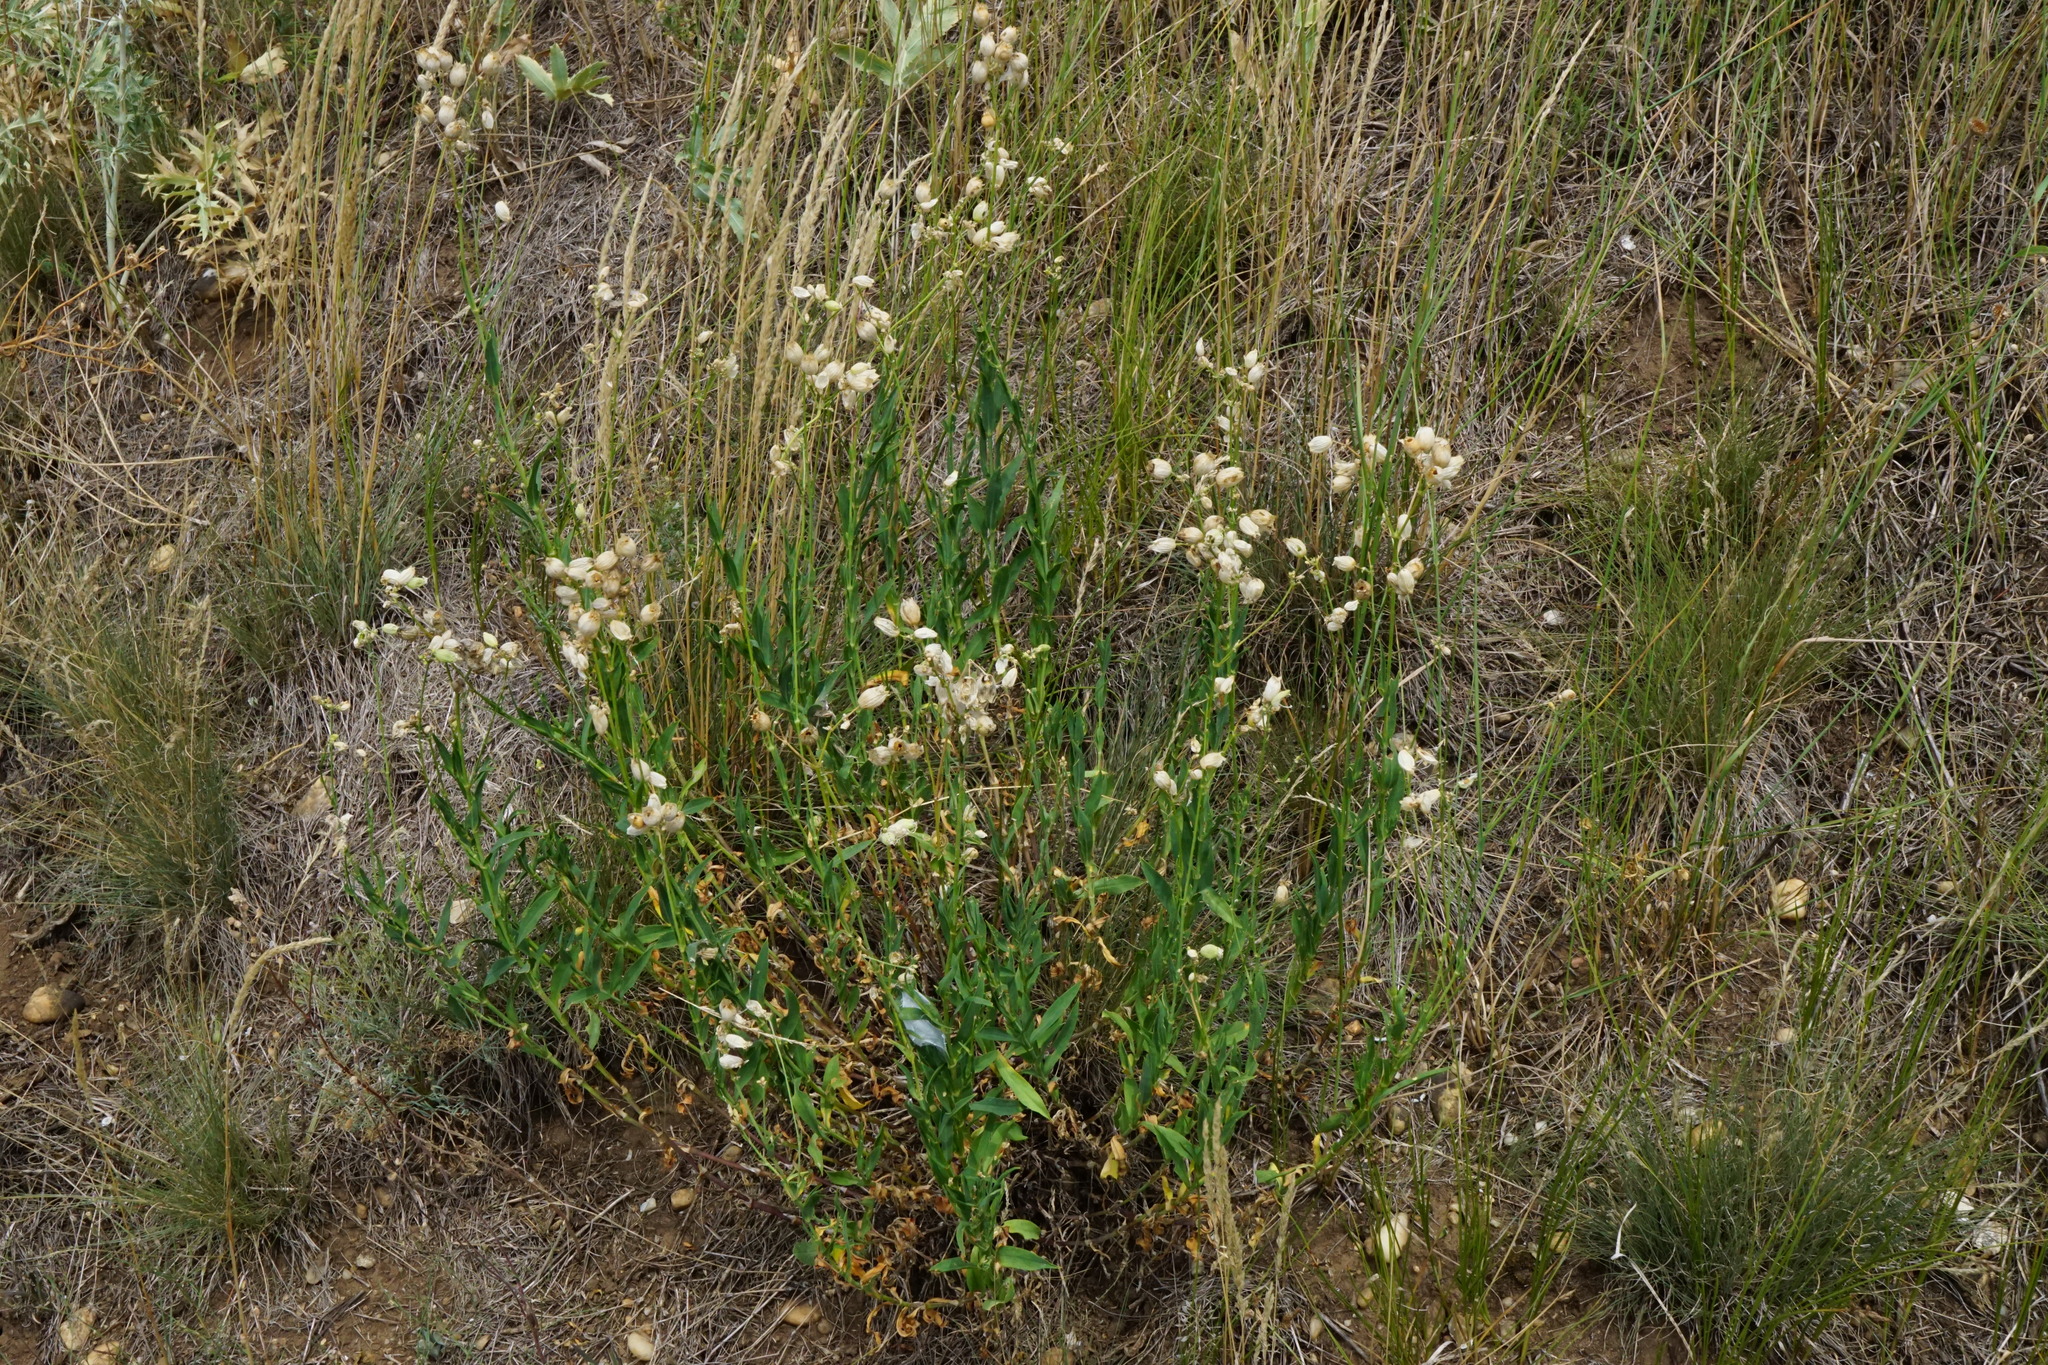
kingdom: Plantae
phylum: Tracheophyta
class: Magnoliopsida
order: Caryophyllales
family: Caryophyllaceae
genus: Silene
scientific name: Silene vulgaris
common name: Bladder campion
